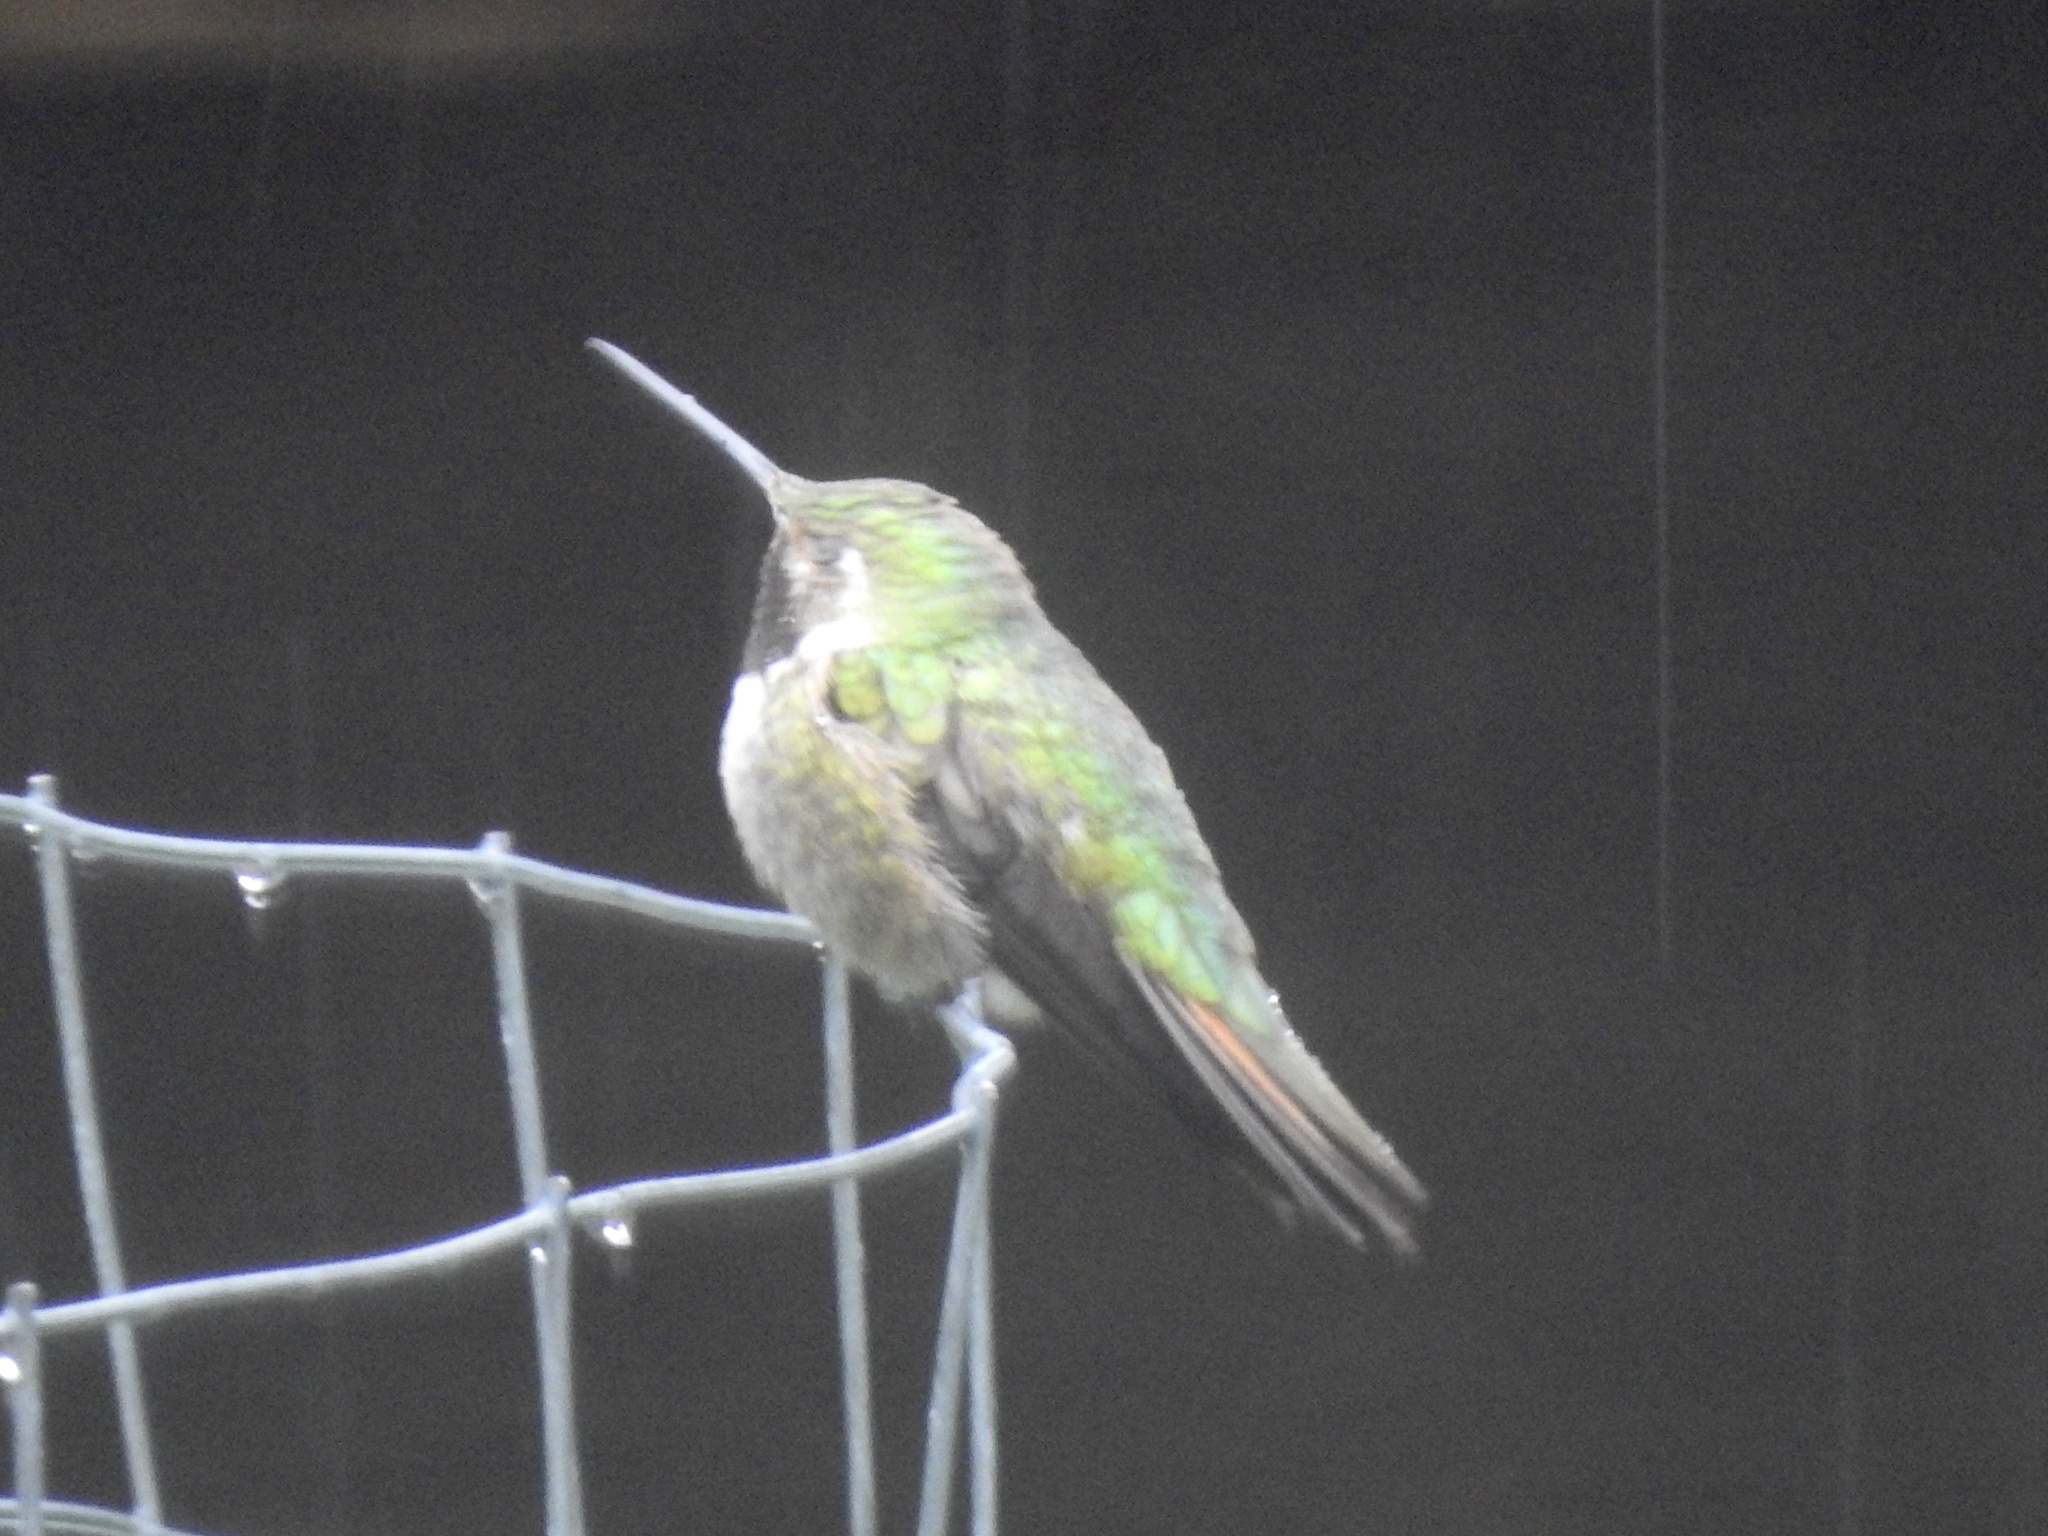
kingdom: Animalia
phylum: Chordata
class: Aves
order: Apodiformes
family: Trochilidae
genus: Selasphorus
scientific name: Selasphorus platycercus
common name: Broad-tailed hummingbird
